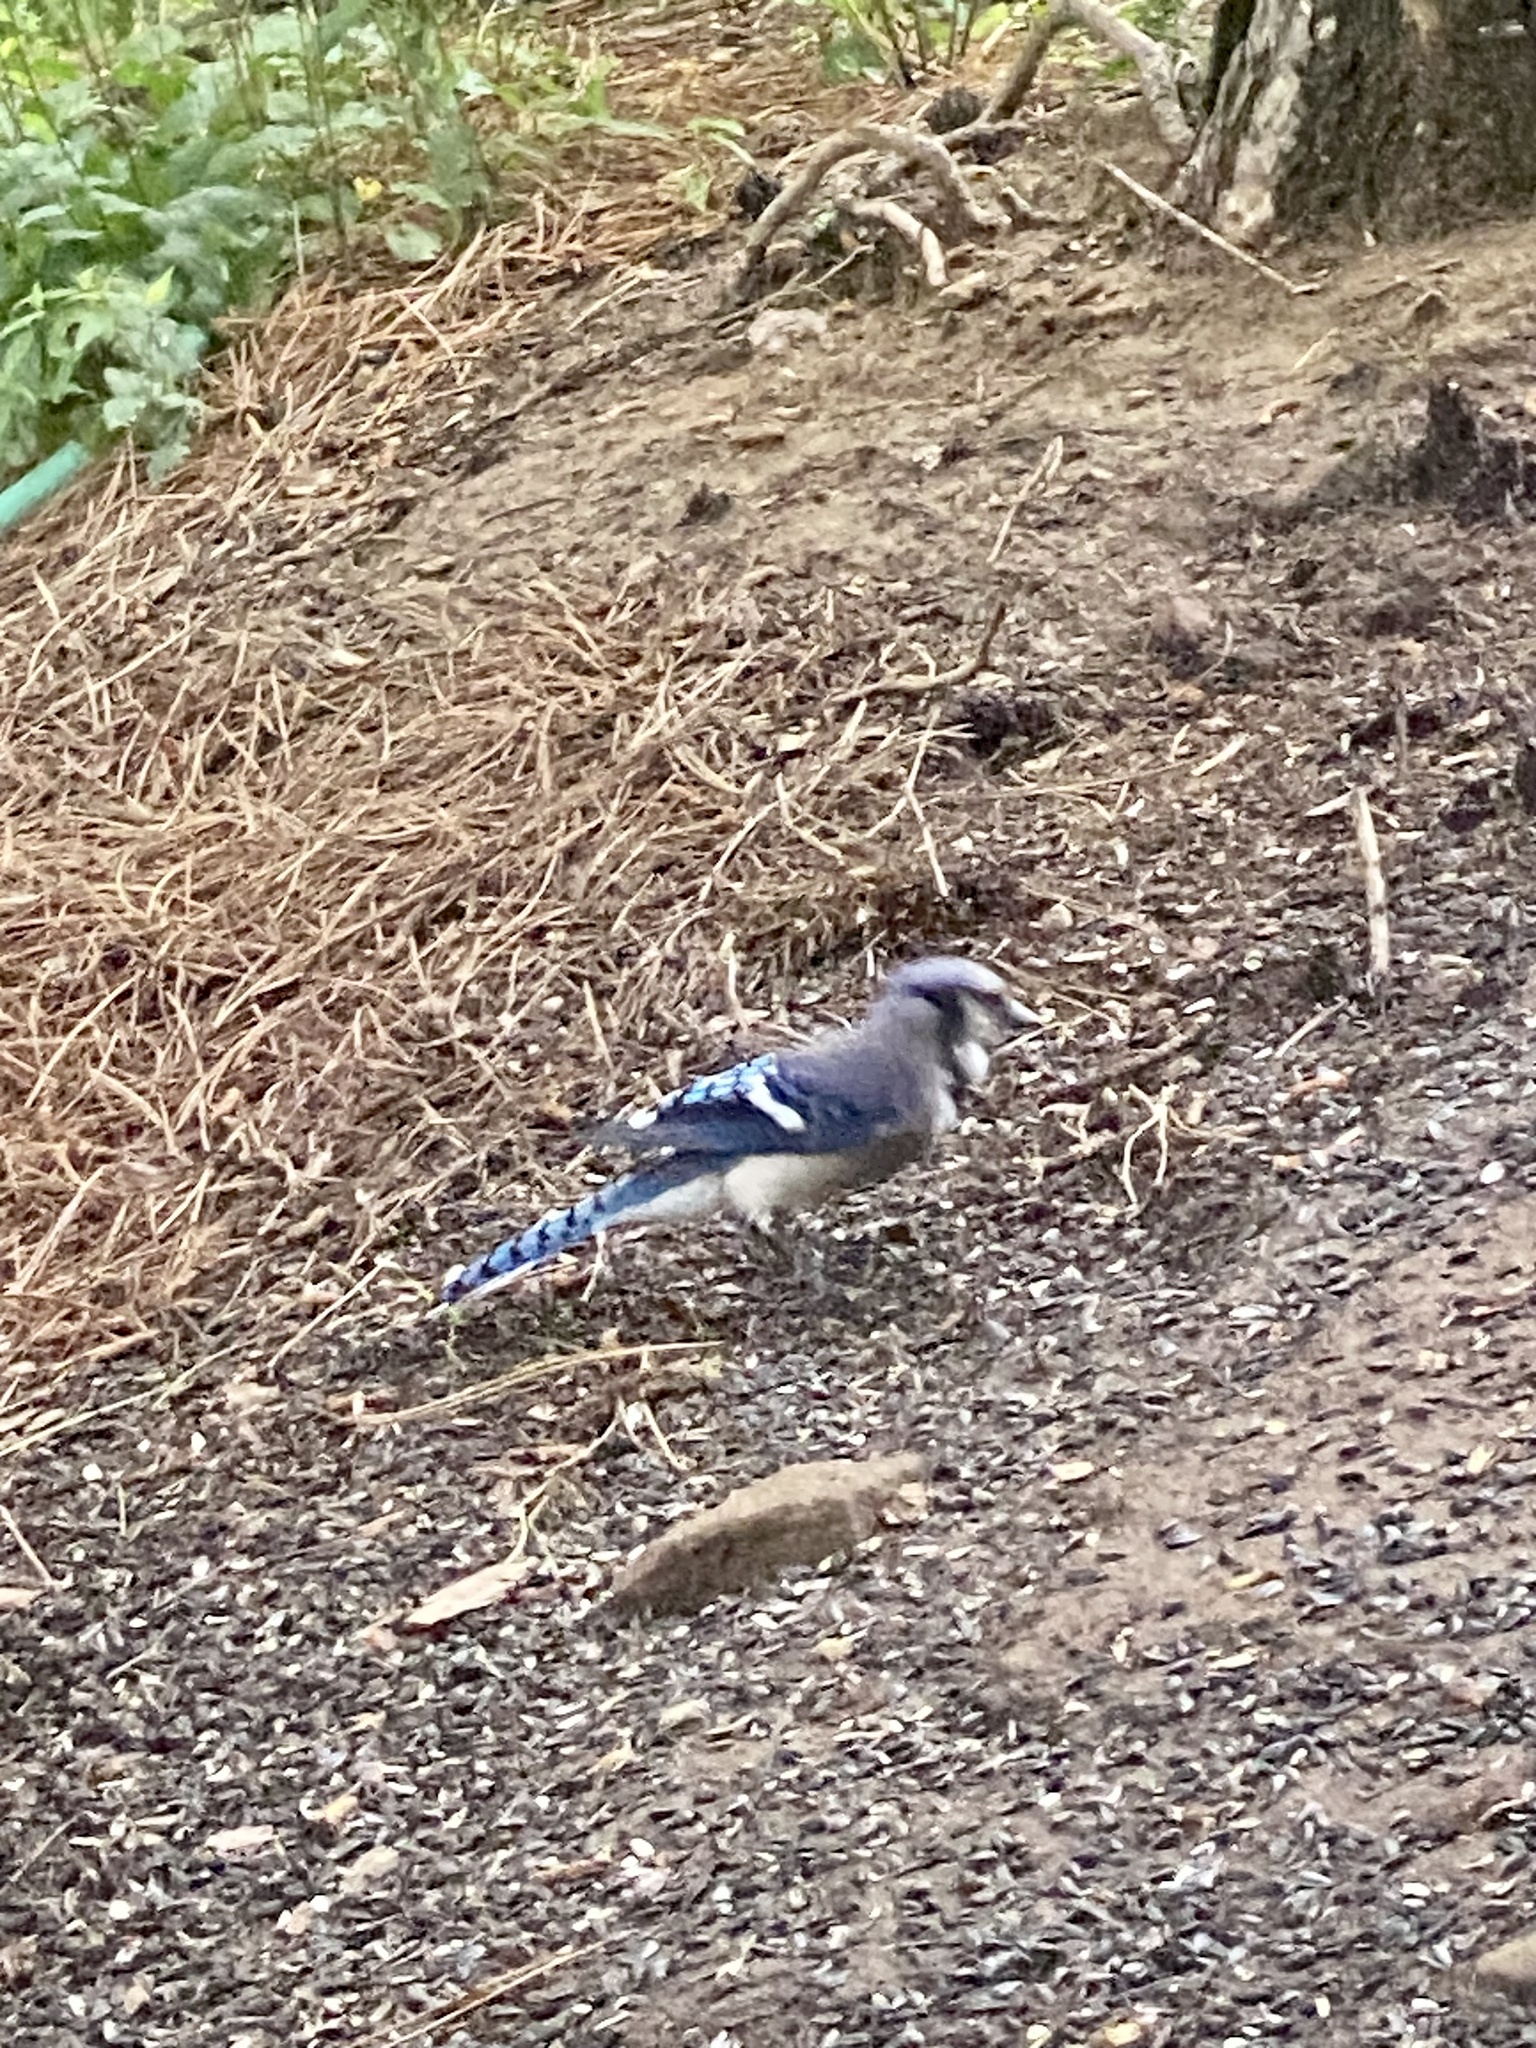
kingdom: Animalia
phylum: Chordata
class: Aves
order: Passeriformes
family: Corvidae
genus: Cyanocitta
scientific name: Cyanocitta cristata
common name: Blue jay
